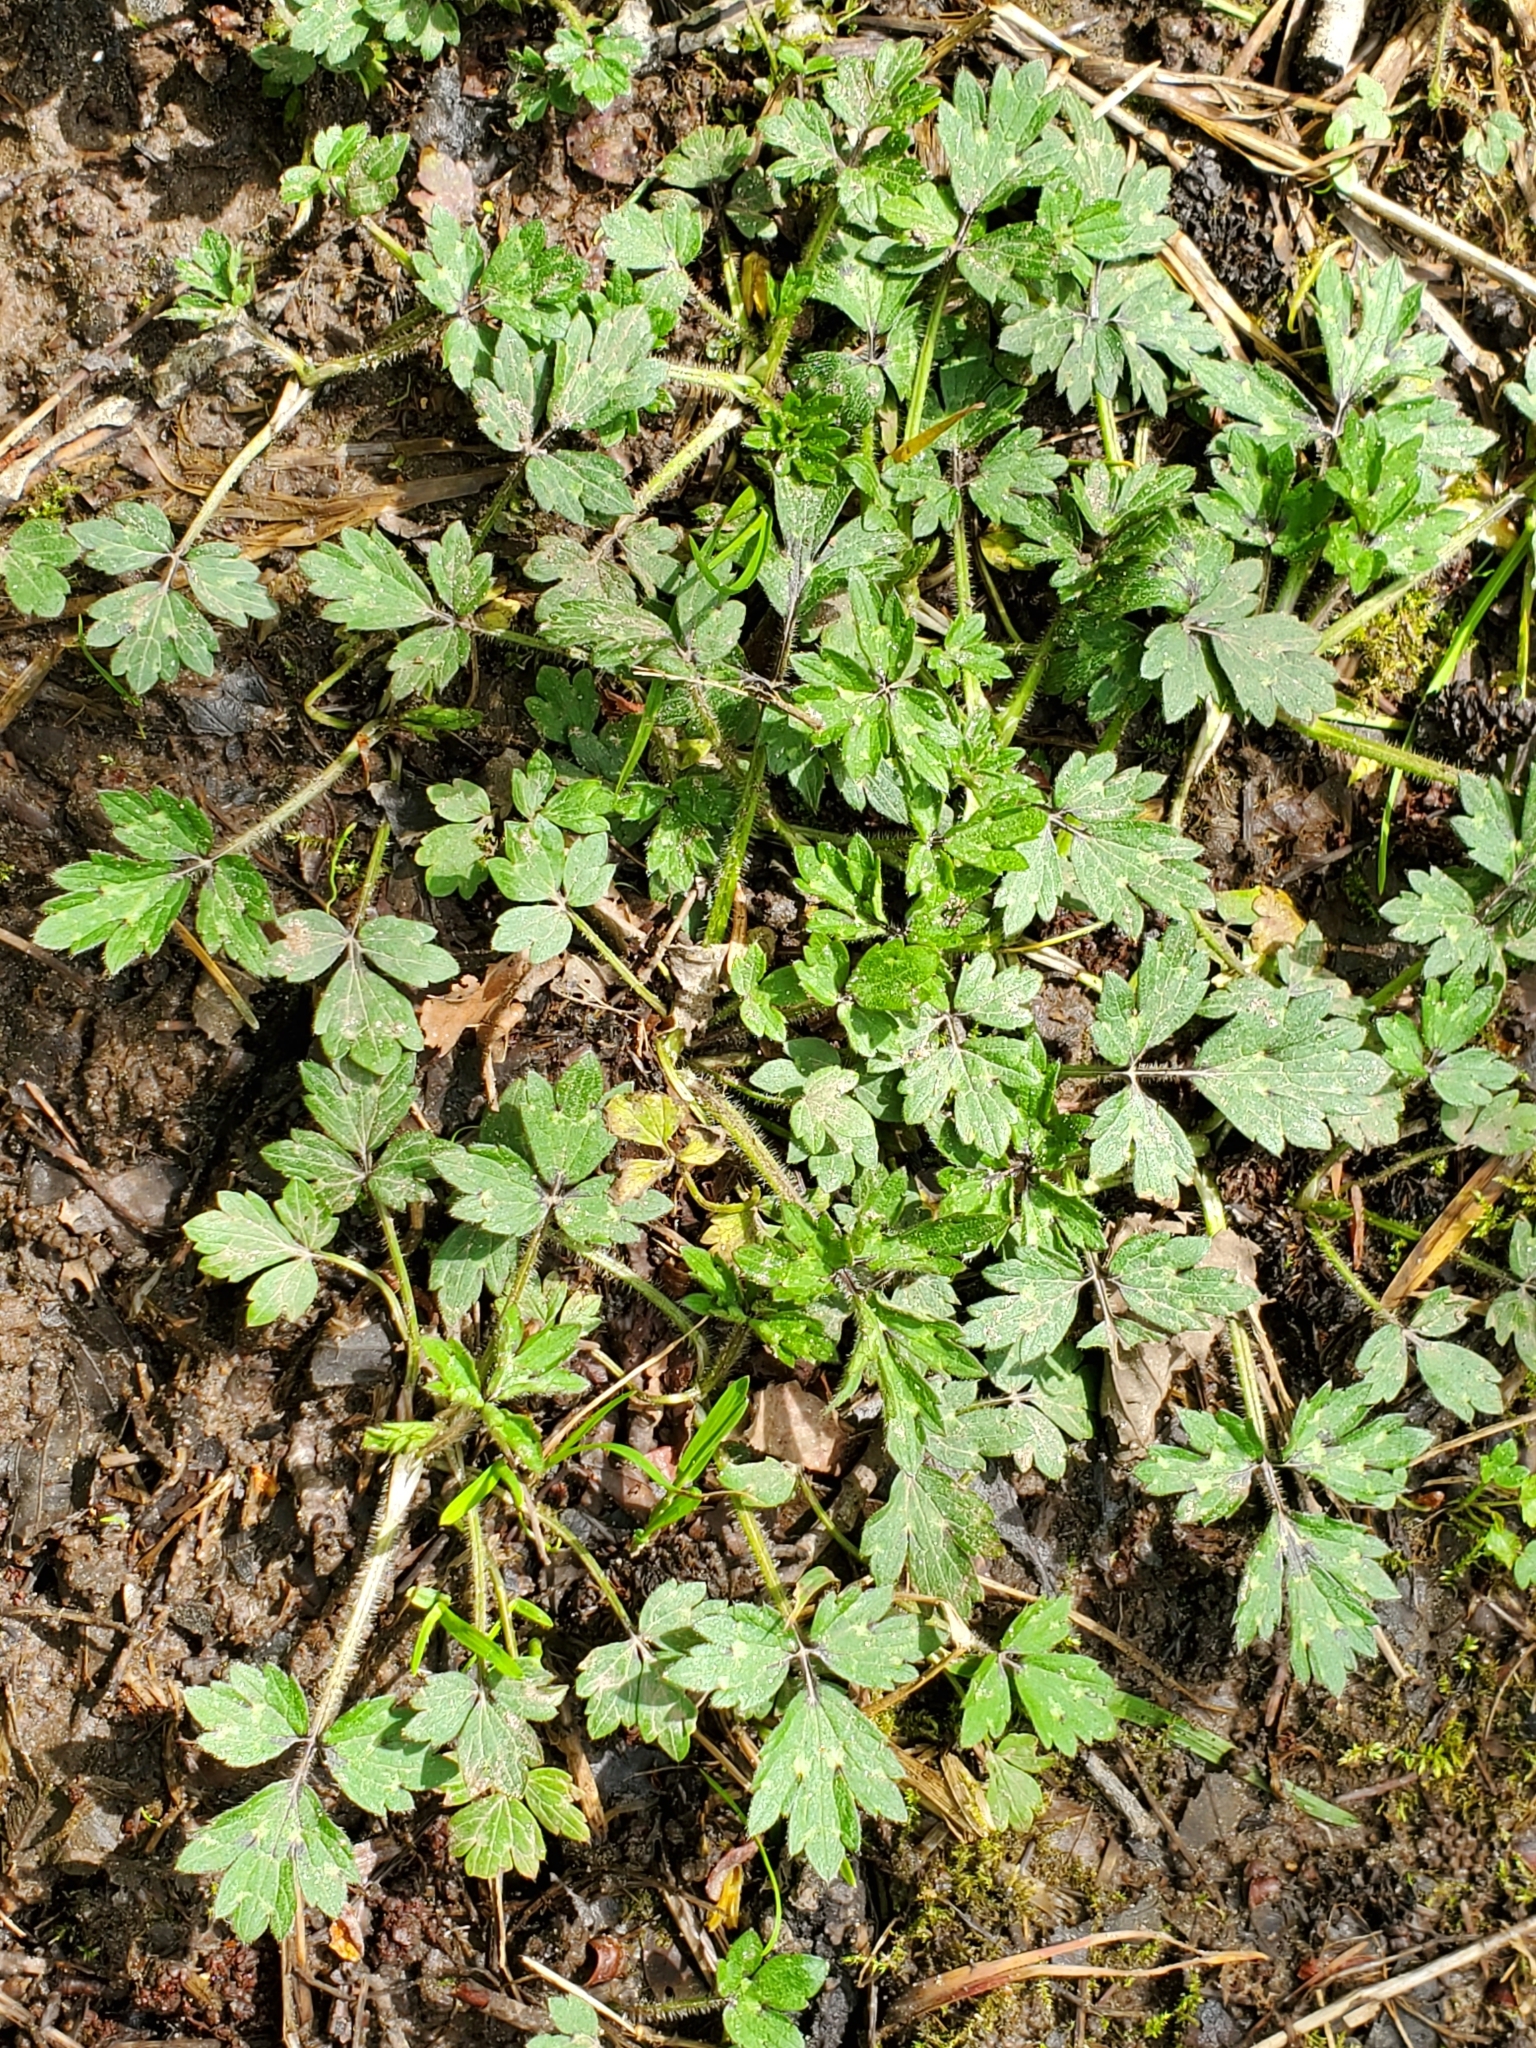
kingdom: Plantae
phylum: Tracheophyta
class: Magnoliopsida
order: Ranunculales
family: Ranunculaceae
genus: Ranunculus
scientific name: Ranunculus repens
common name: Creeping buttercup
